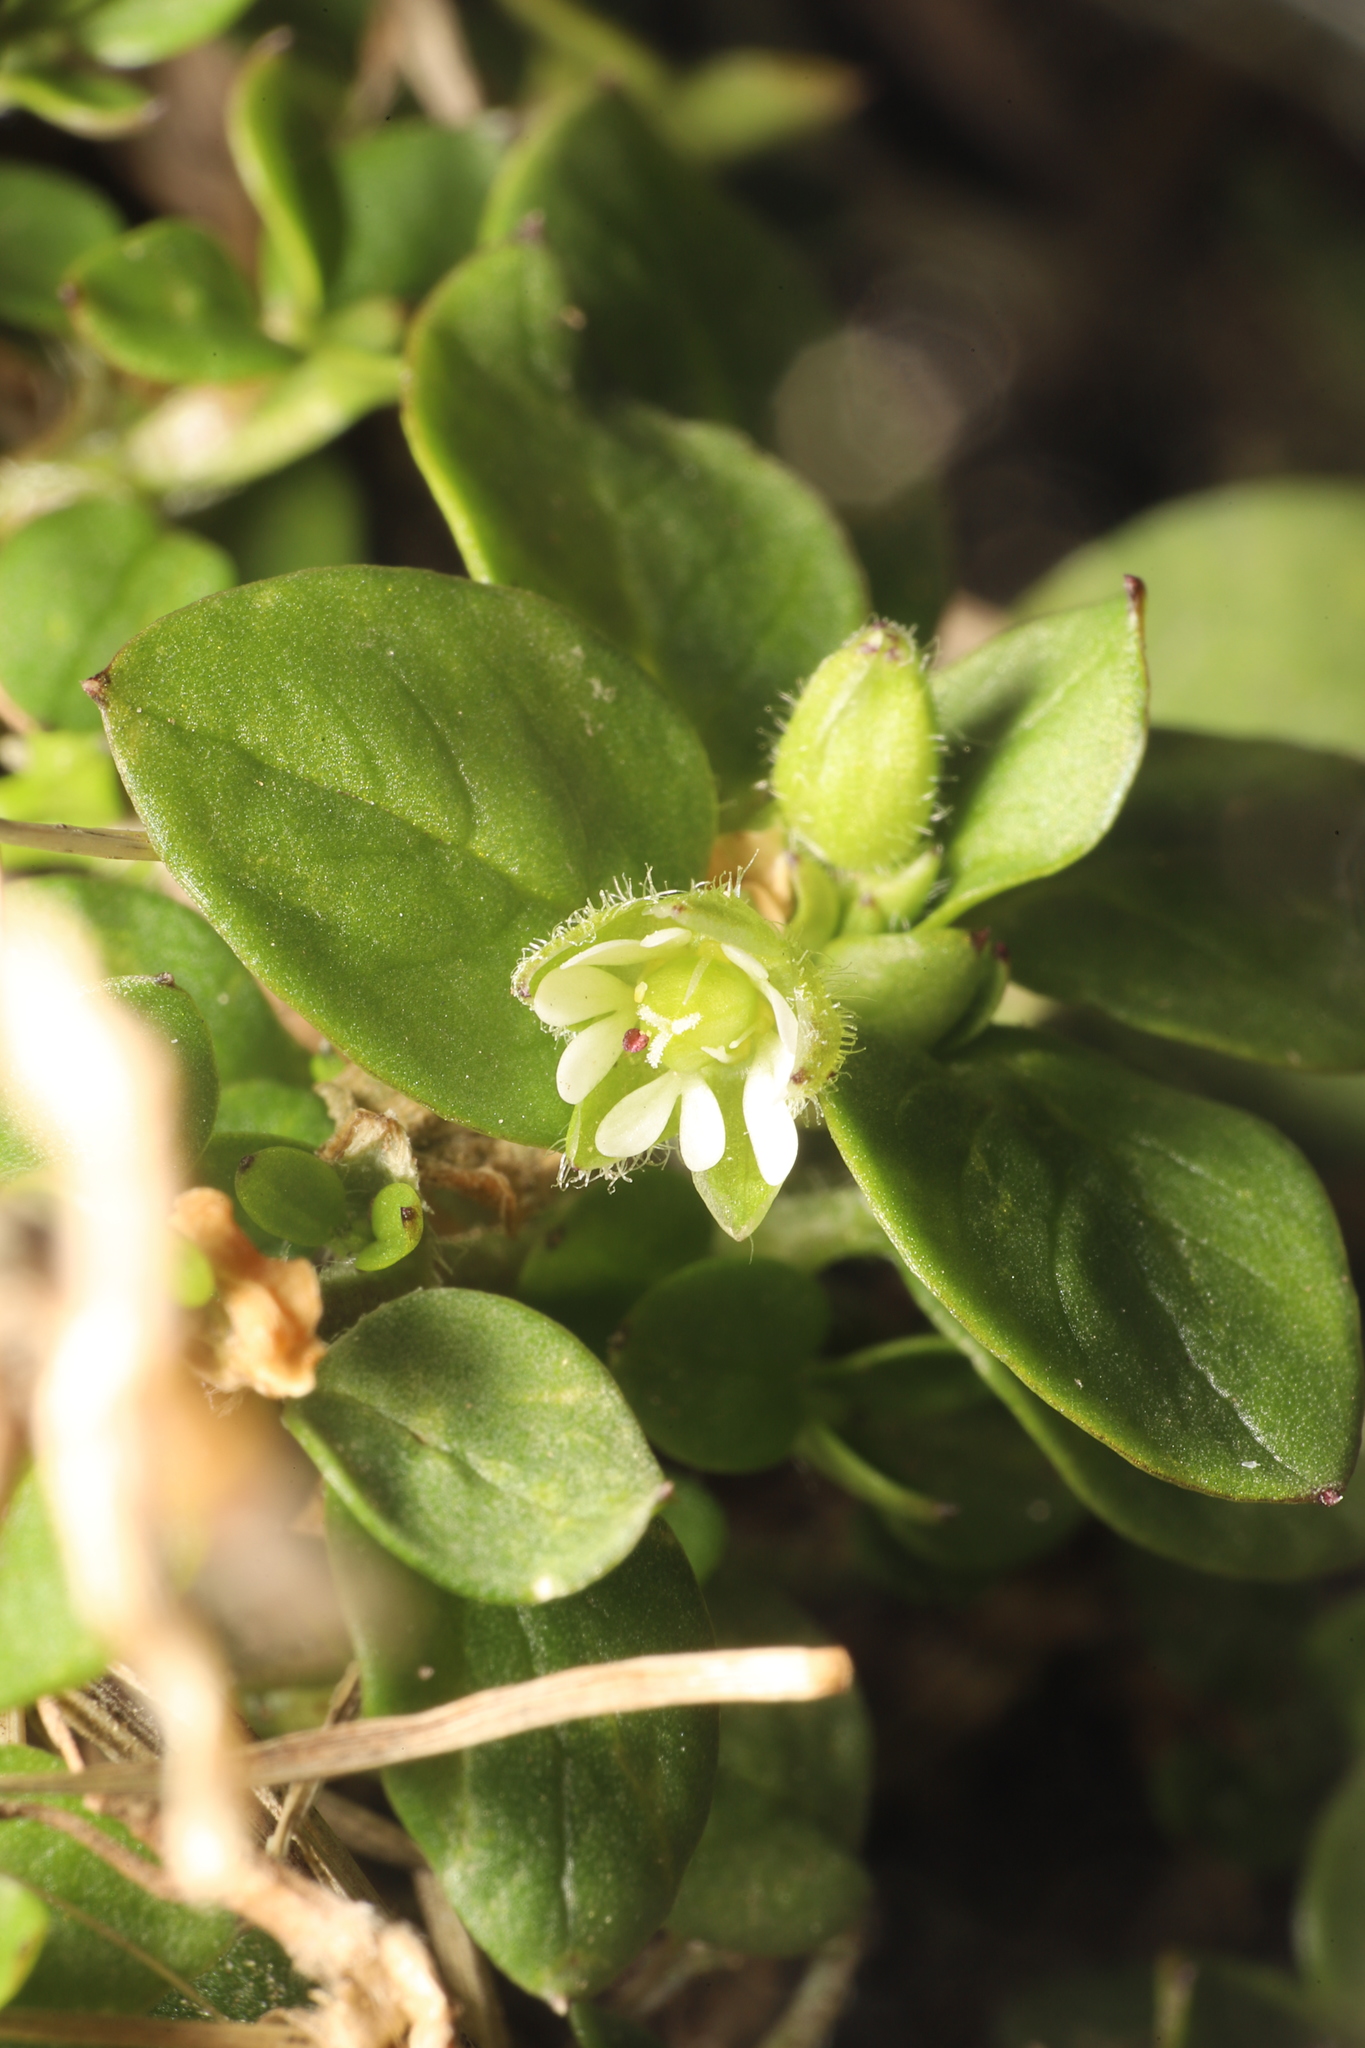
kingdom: Plantae
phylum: Tracheophyta
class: Magnoliopsida
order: Caryophyllales
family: Caryophyllaceae
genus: Stellaria
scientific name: Stellaria media
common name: Common chickweed
